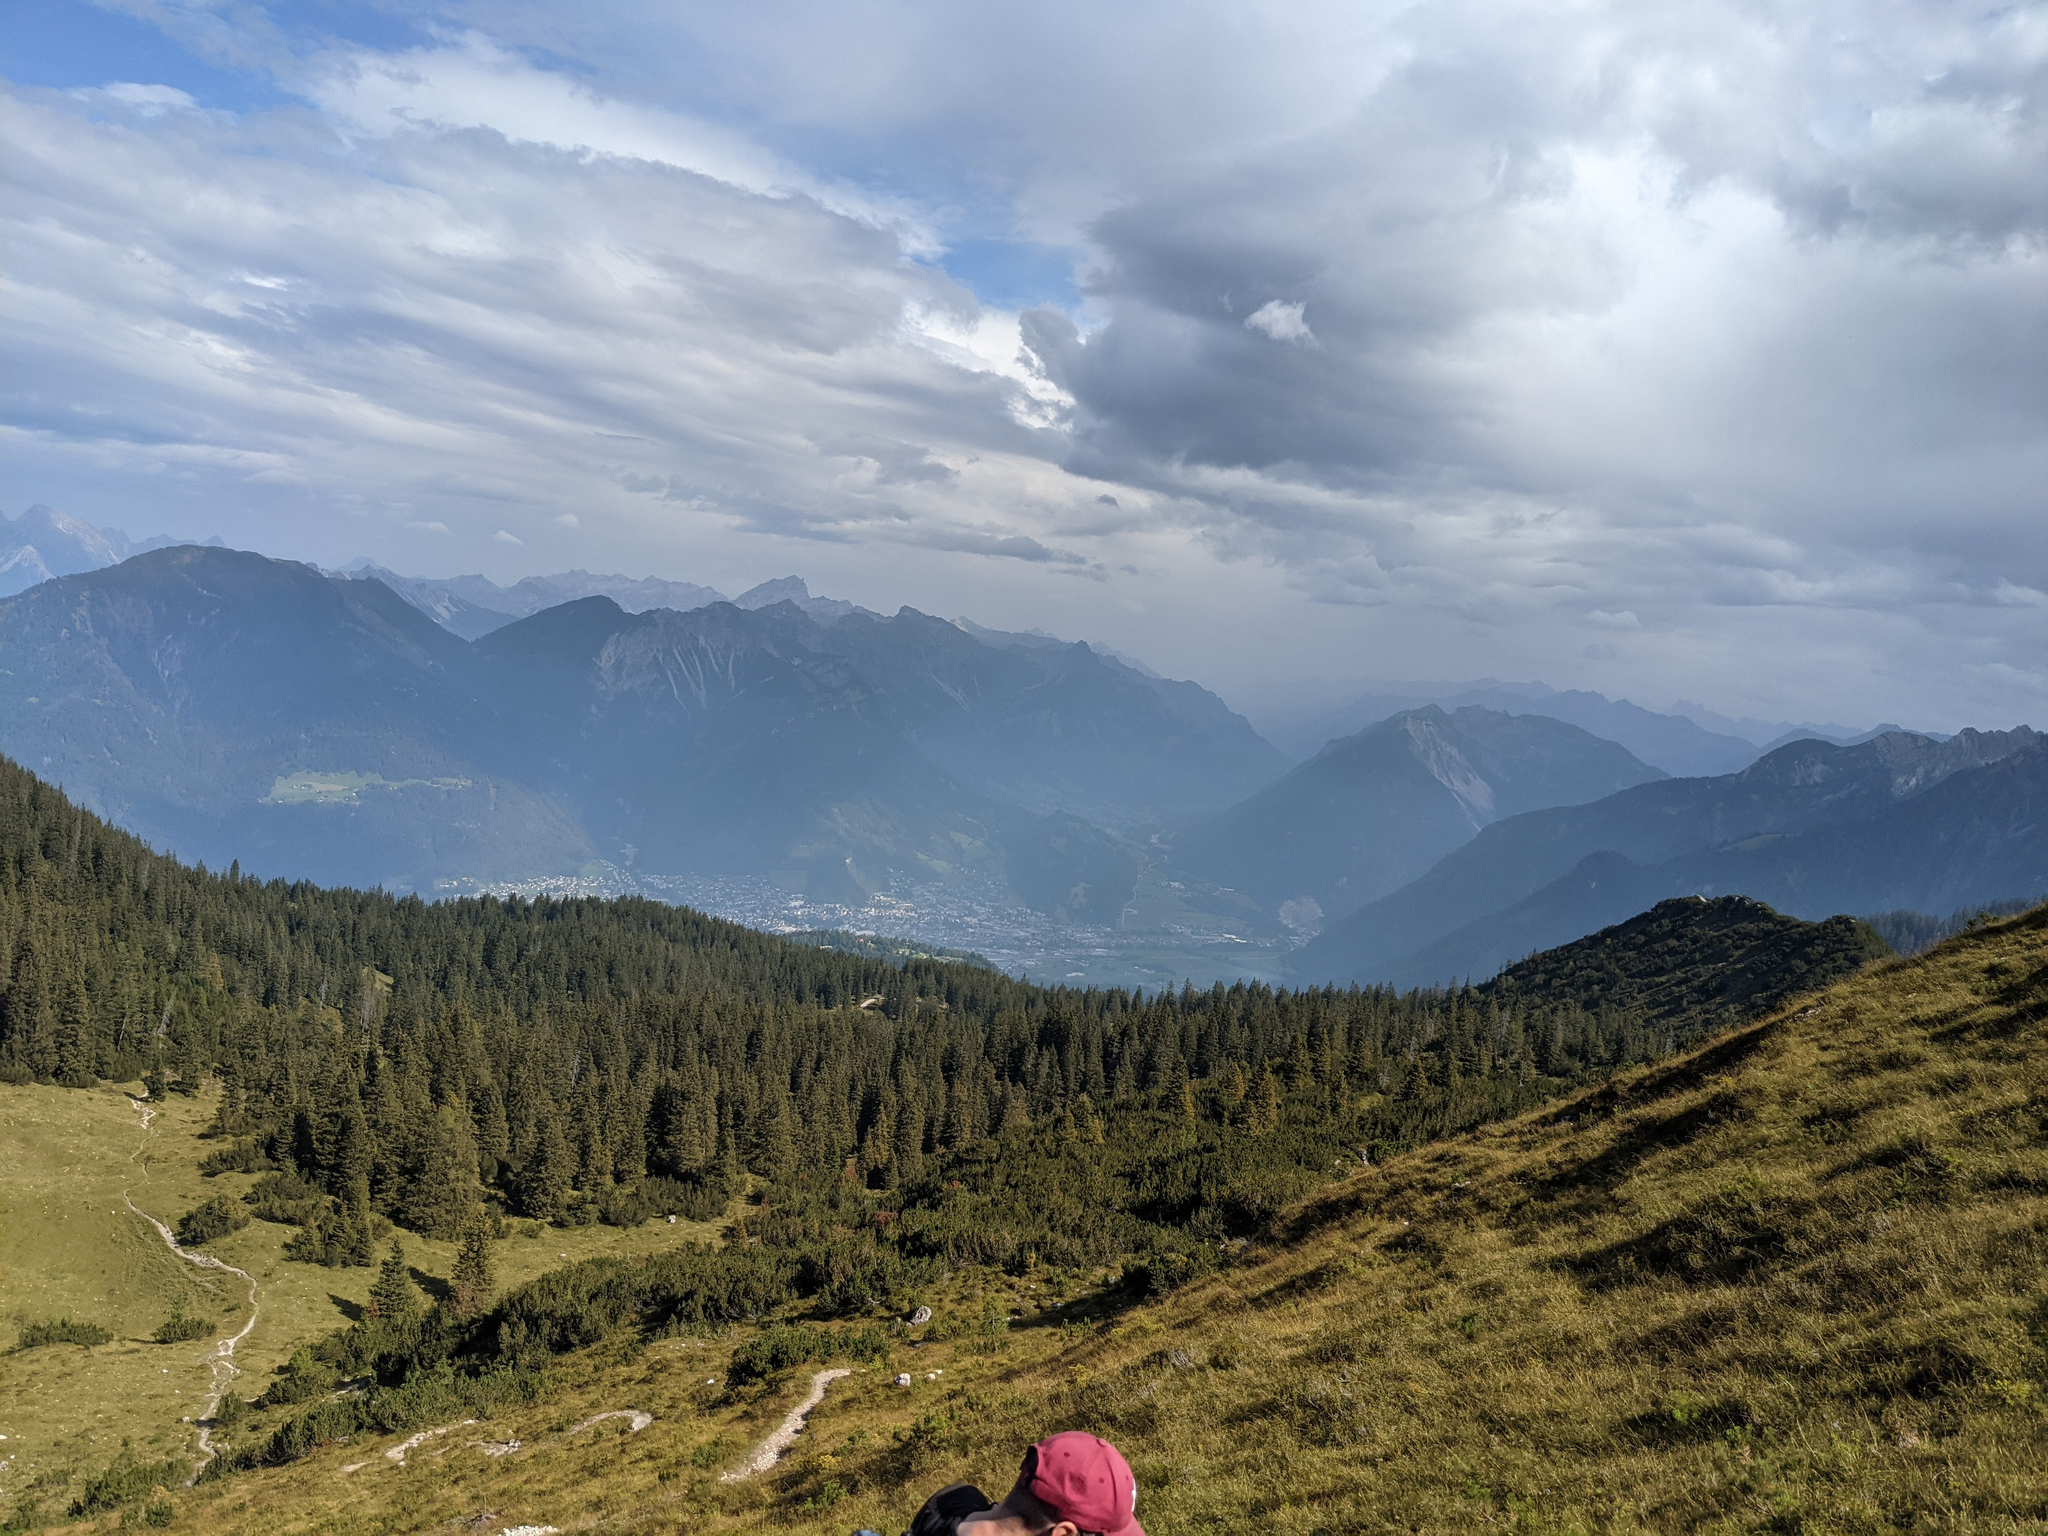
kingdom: Plantae
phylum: Tracheophyta
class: Pinopsida
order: Pinales
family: Pinaceae
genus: Pinus
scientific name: Pinus mugo
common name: Mugo pine
